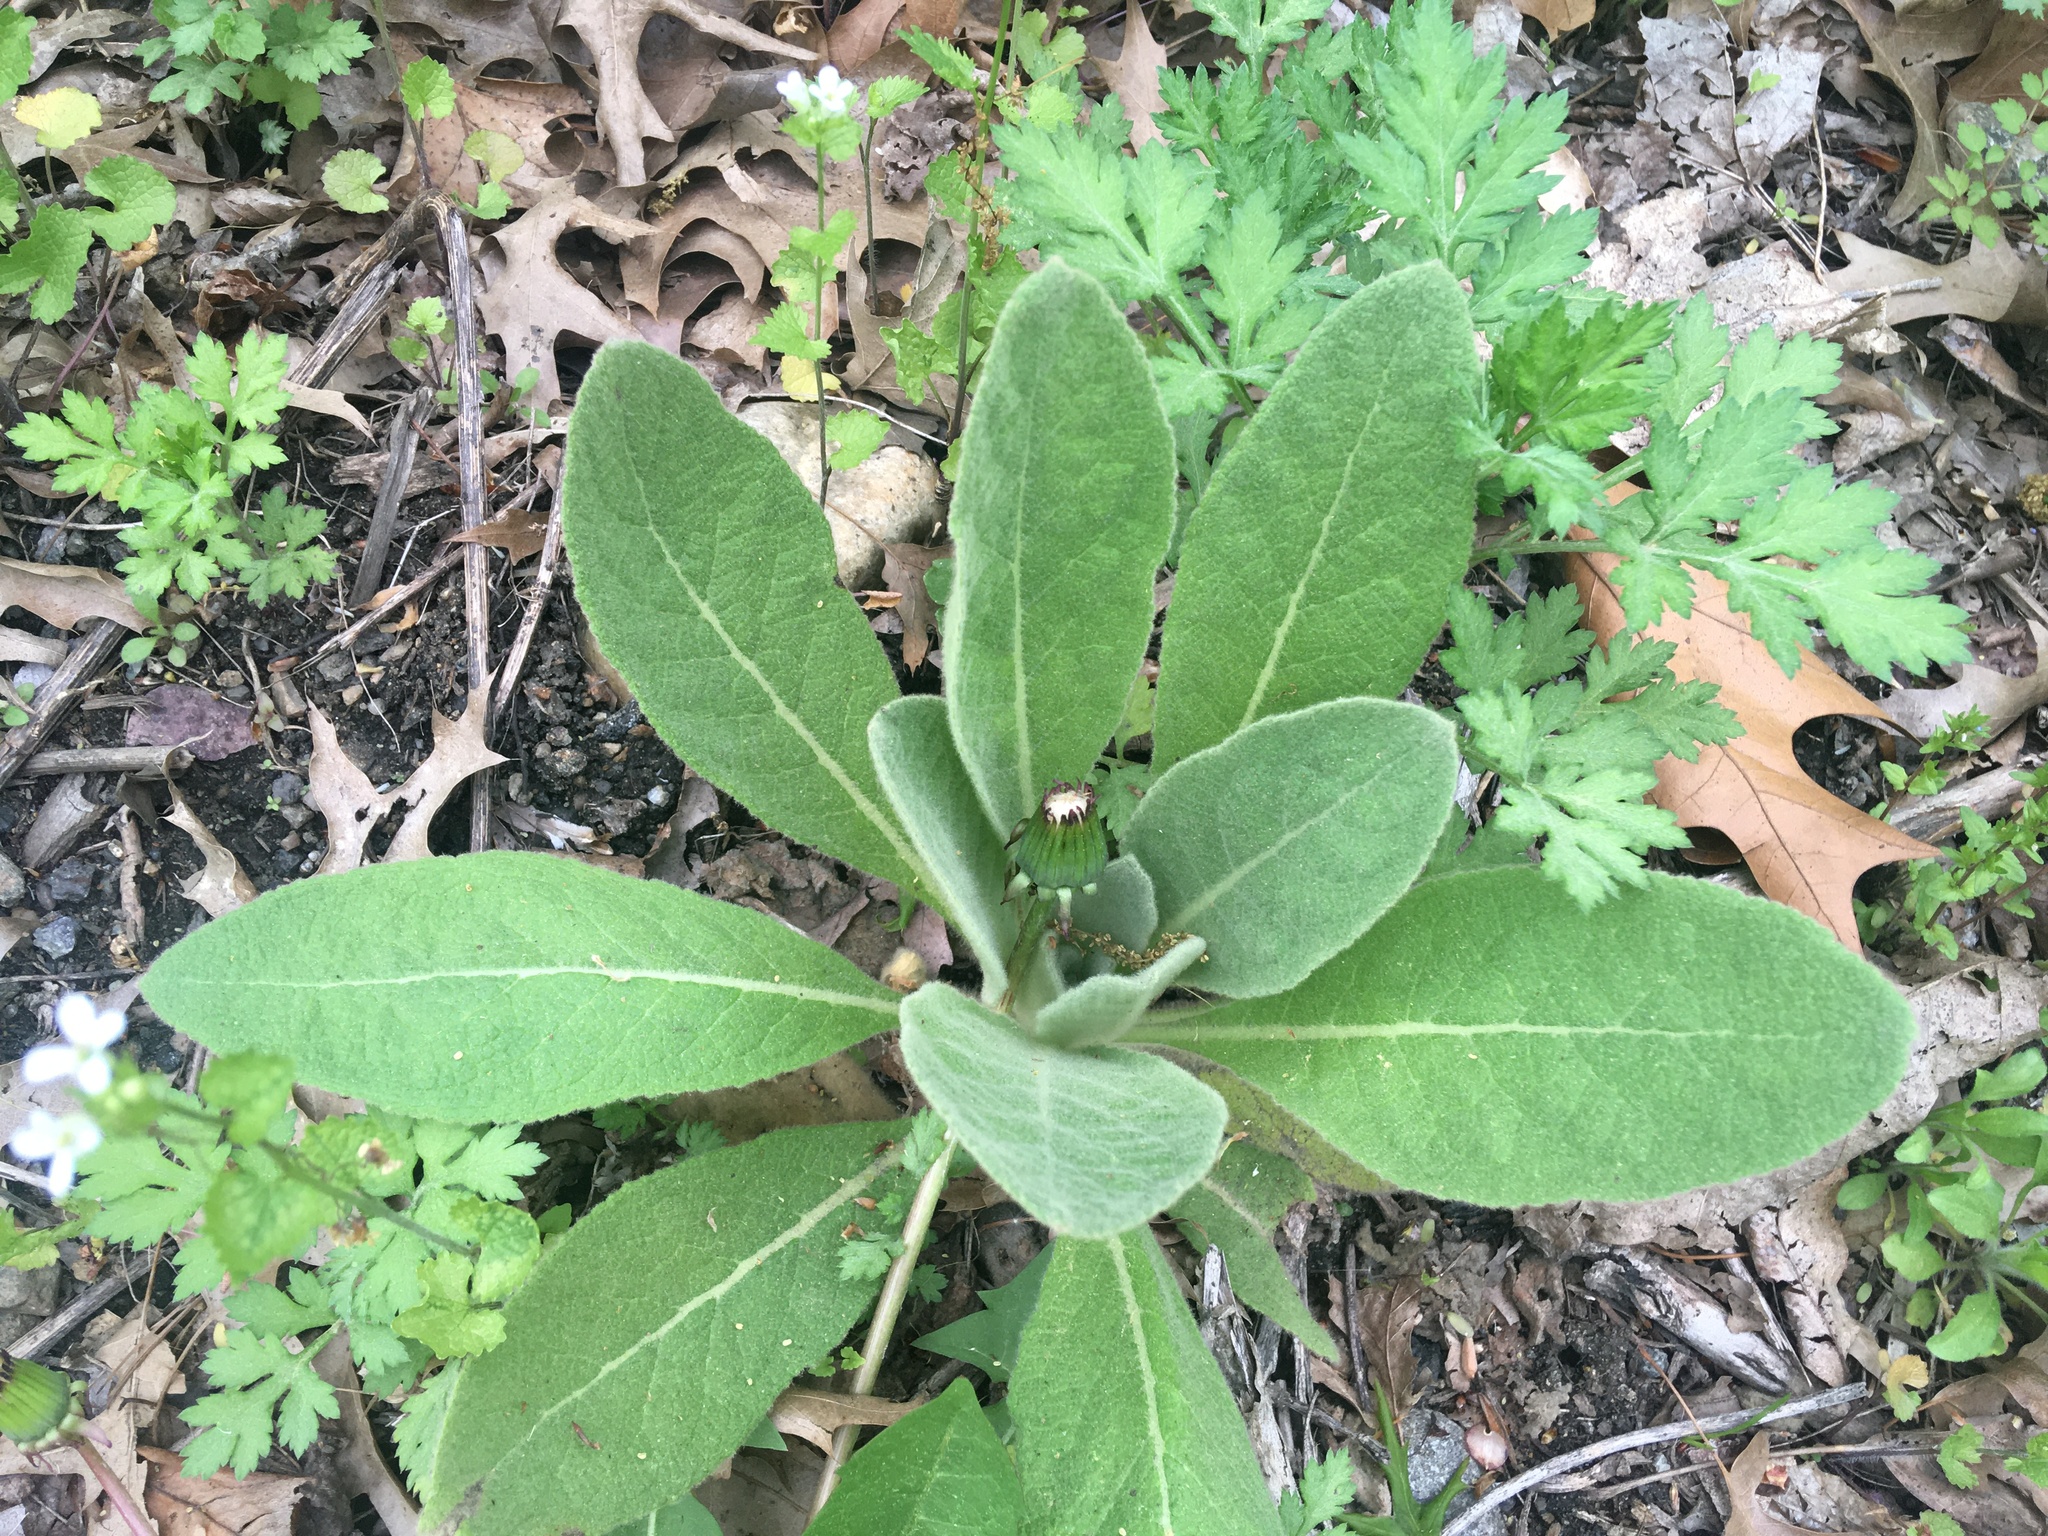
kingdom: Plantae
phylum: Tracheophyta
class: Magnoliopsida
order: Lamiales
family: Scrophulariaceae
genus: Verbascum
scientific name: Verbascum thapsus
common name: Common mullein
